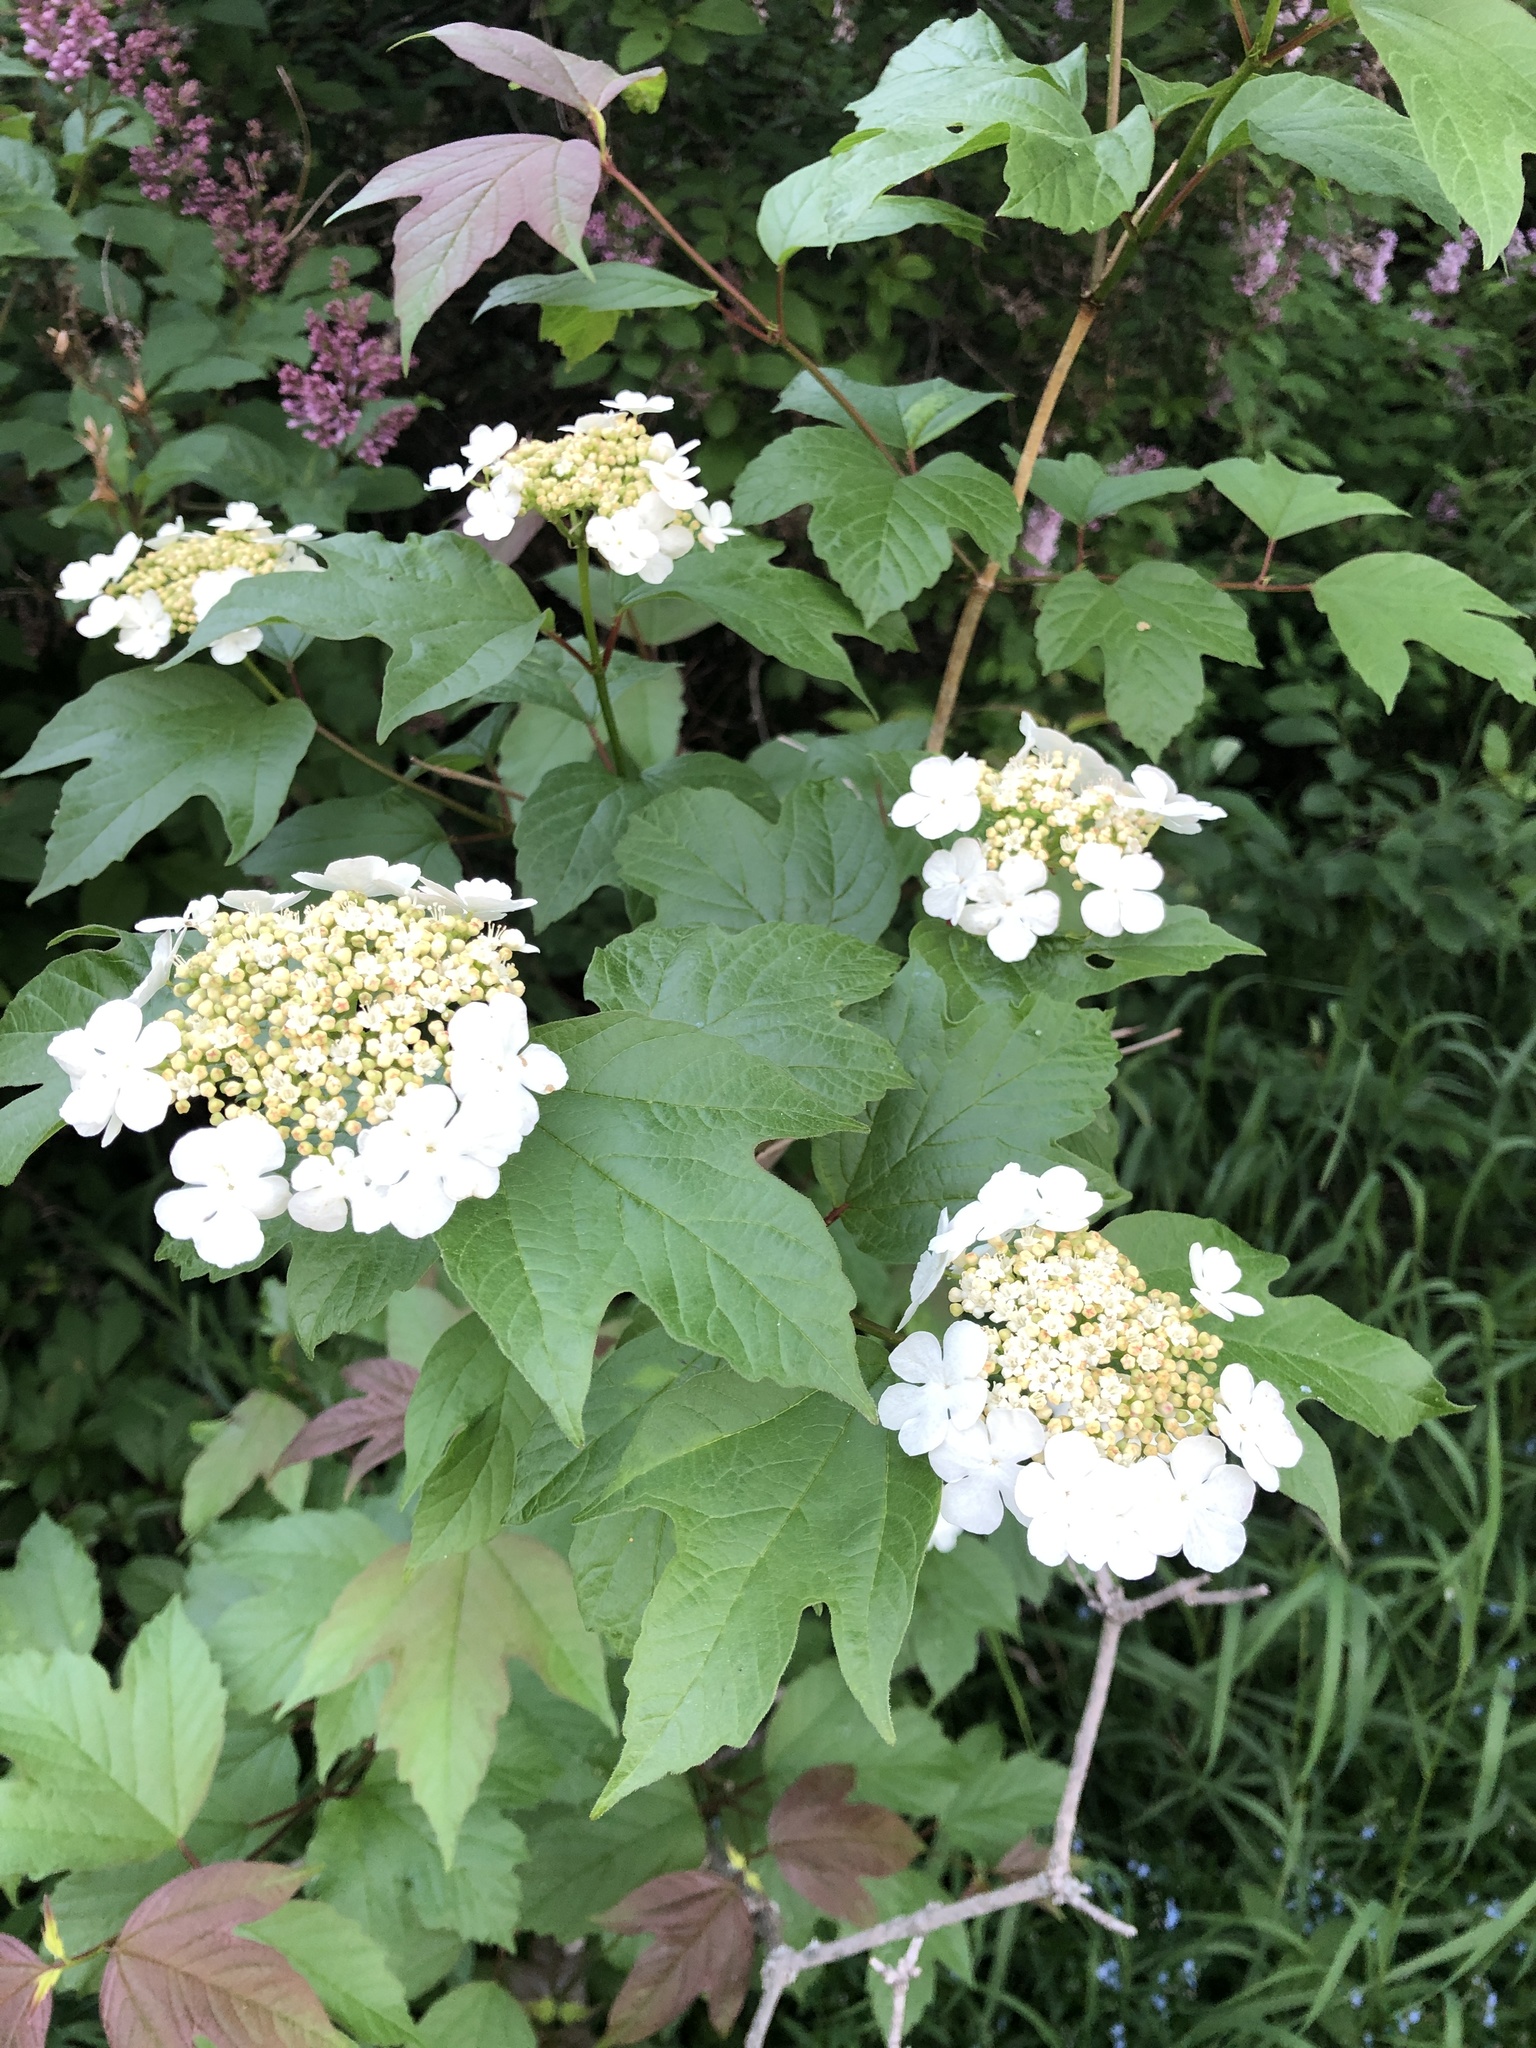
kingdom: Plantae
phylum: Tracheophyta
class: Magnoliopsida
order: Dipsacales
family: Viburnaceae
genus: Viburnum
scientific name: Viburnum opulus
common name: Guelder-rose
